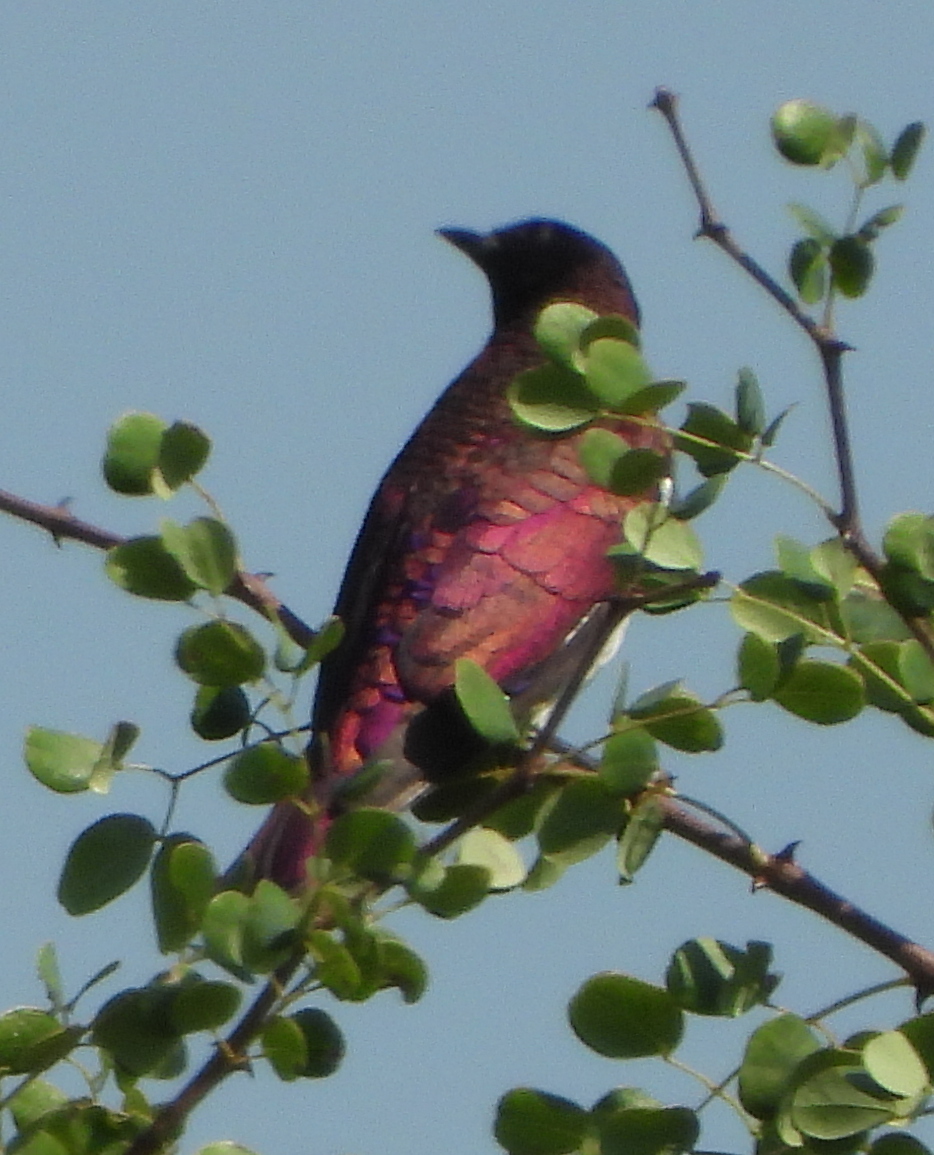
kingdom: Animalia
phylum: Chordata
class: Aves
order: Passeriformes
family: Sturnidae
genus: Cinnyricinclus
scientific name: Cinnyricinclus leucogaster
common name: Violet-backed starling
